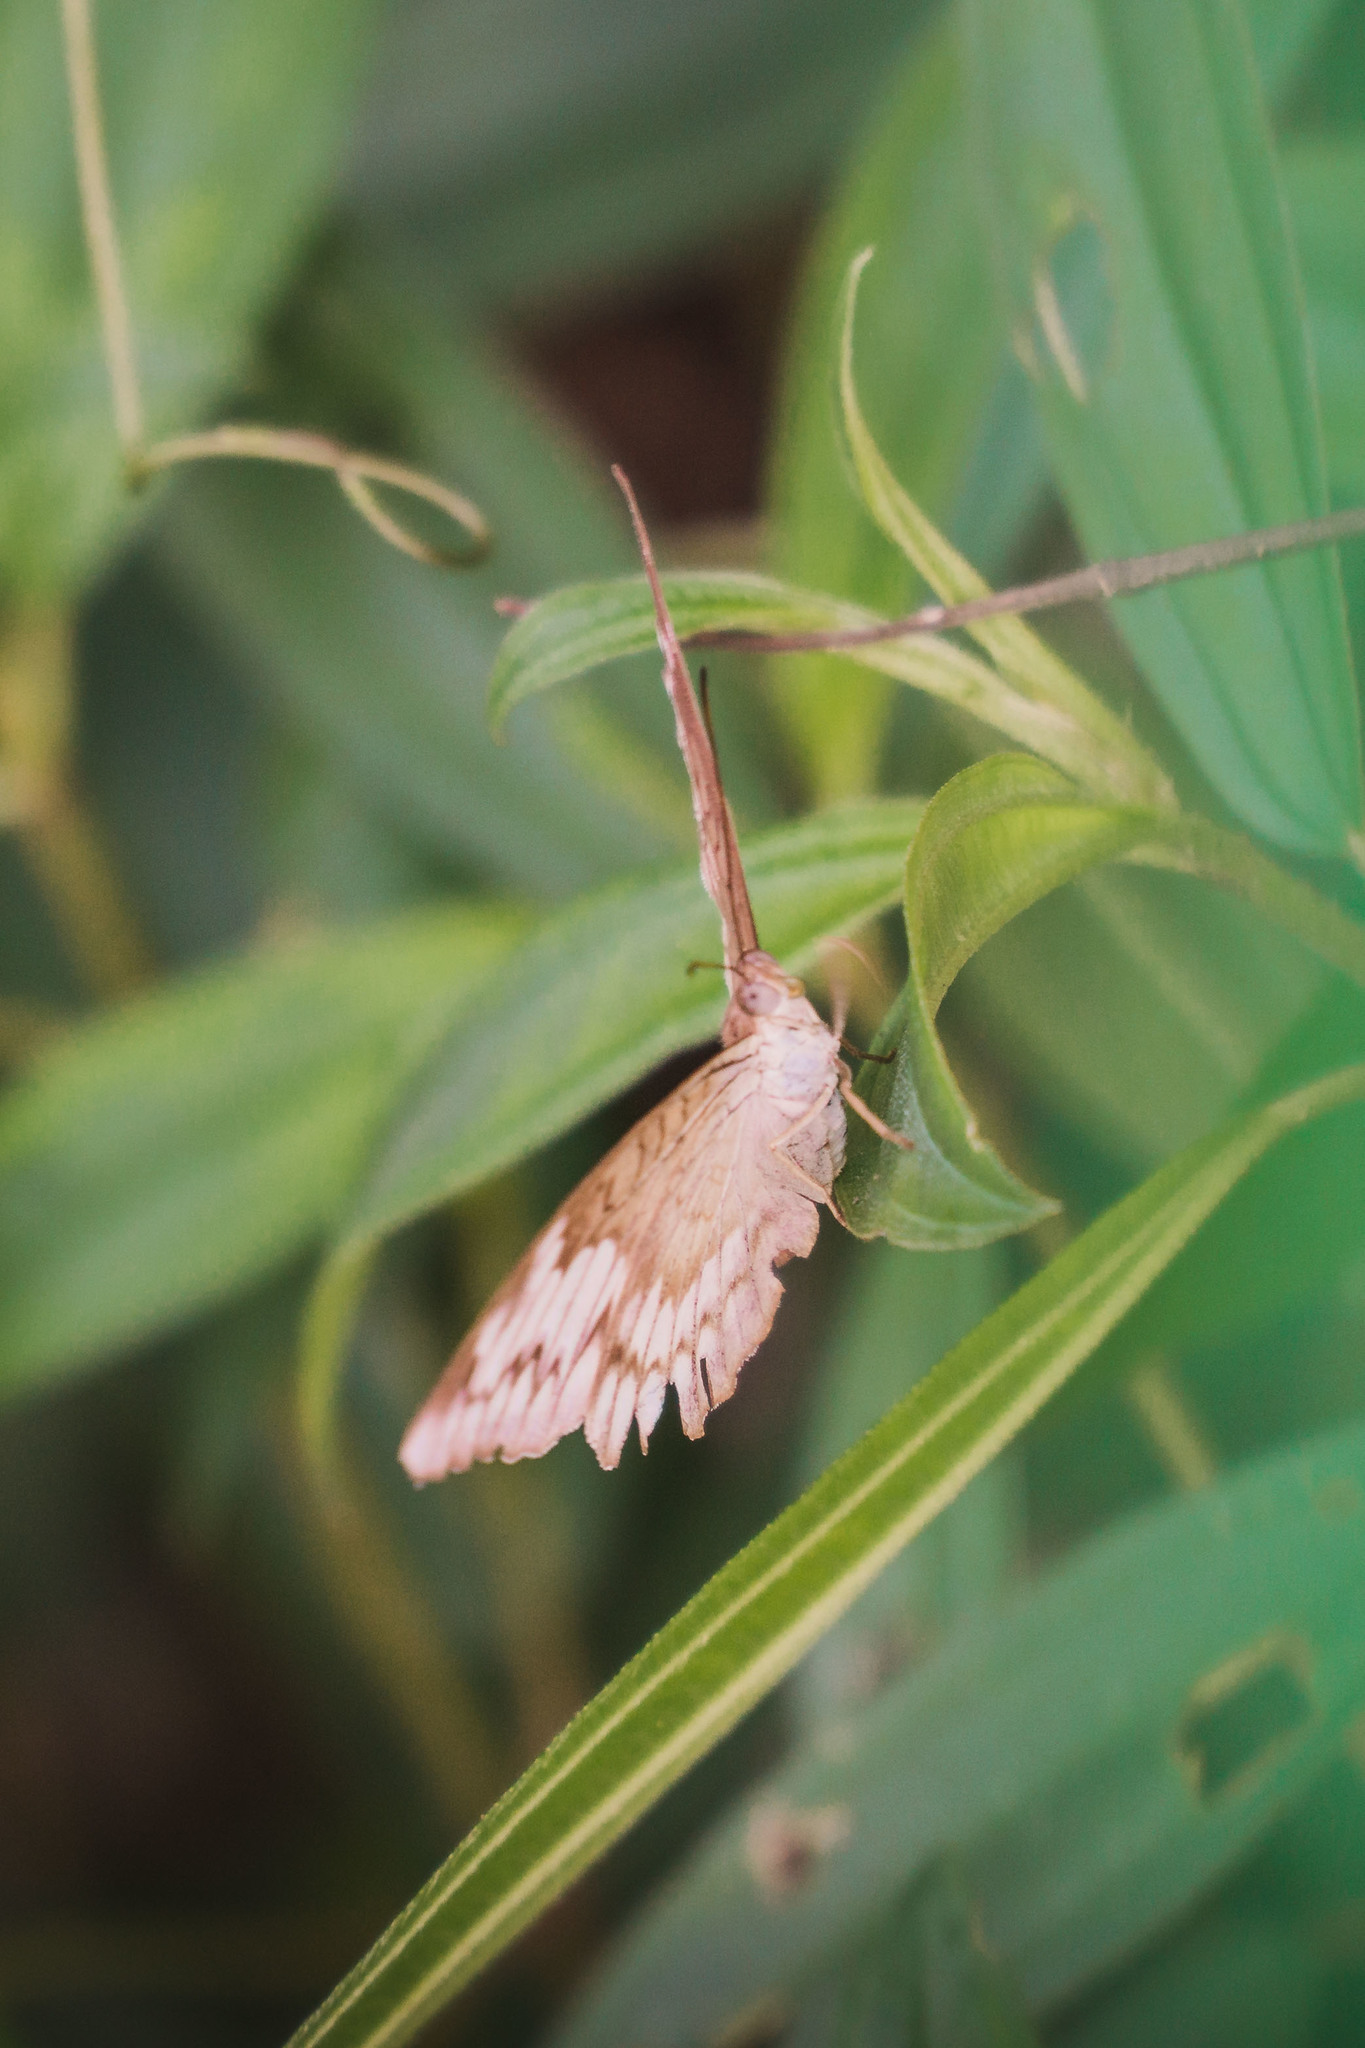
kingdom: Animalia
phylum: Arthropoda
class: Insecta
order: Lepidoptera
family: Nymphalidae
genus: Tanaecia
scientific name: Tanaecia iapis
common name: Horsfield's baron
